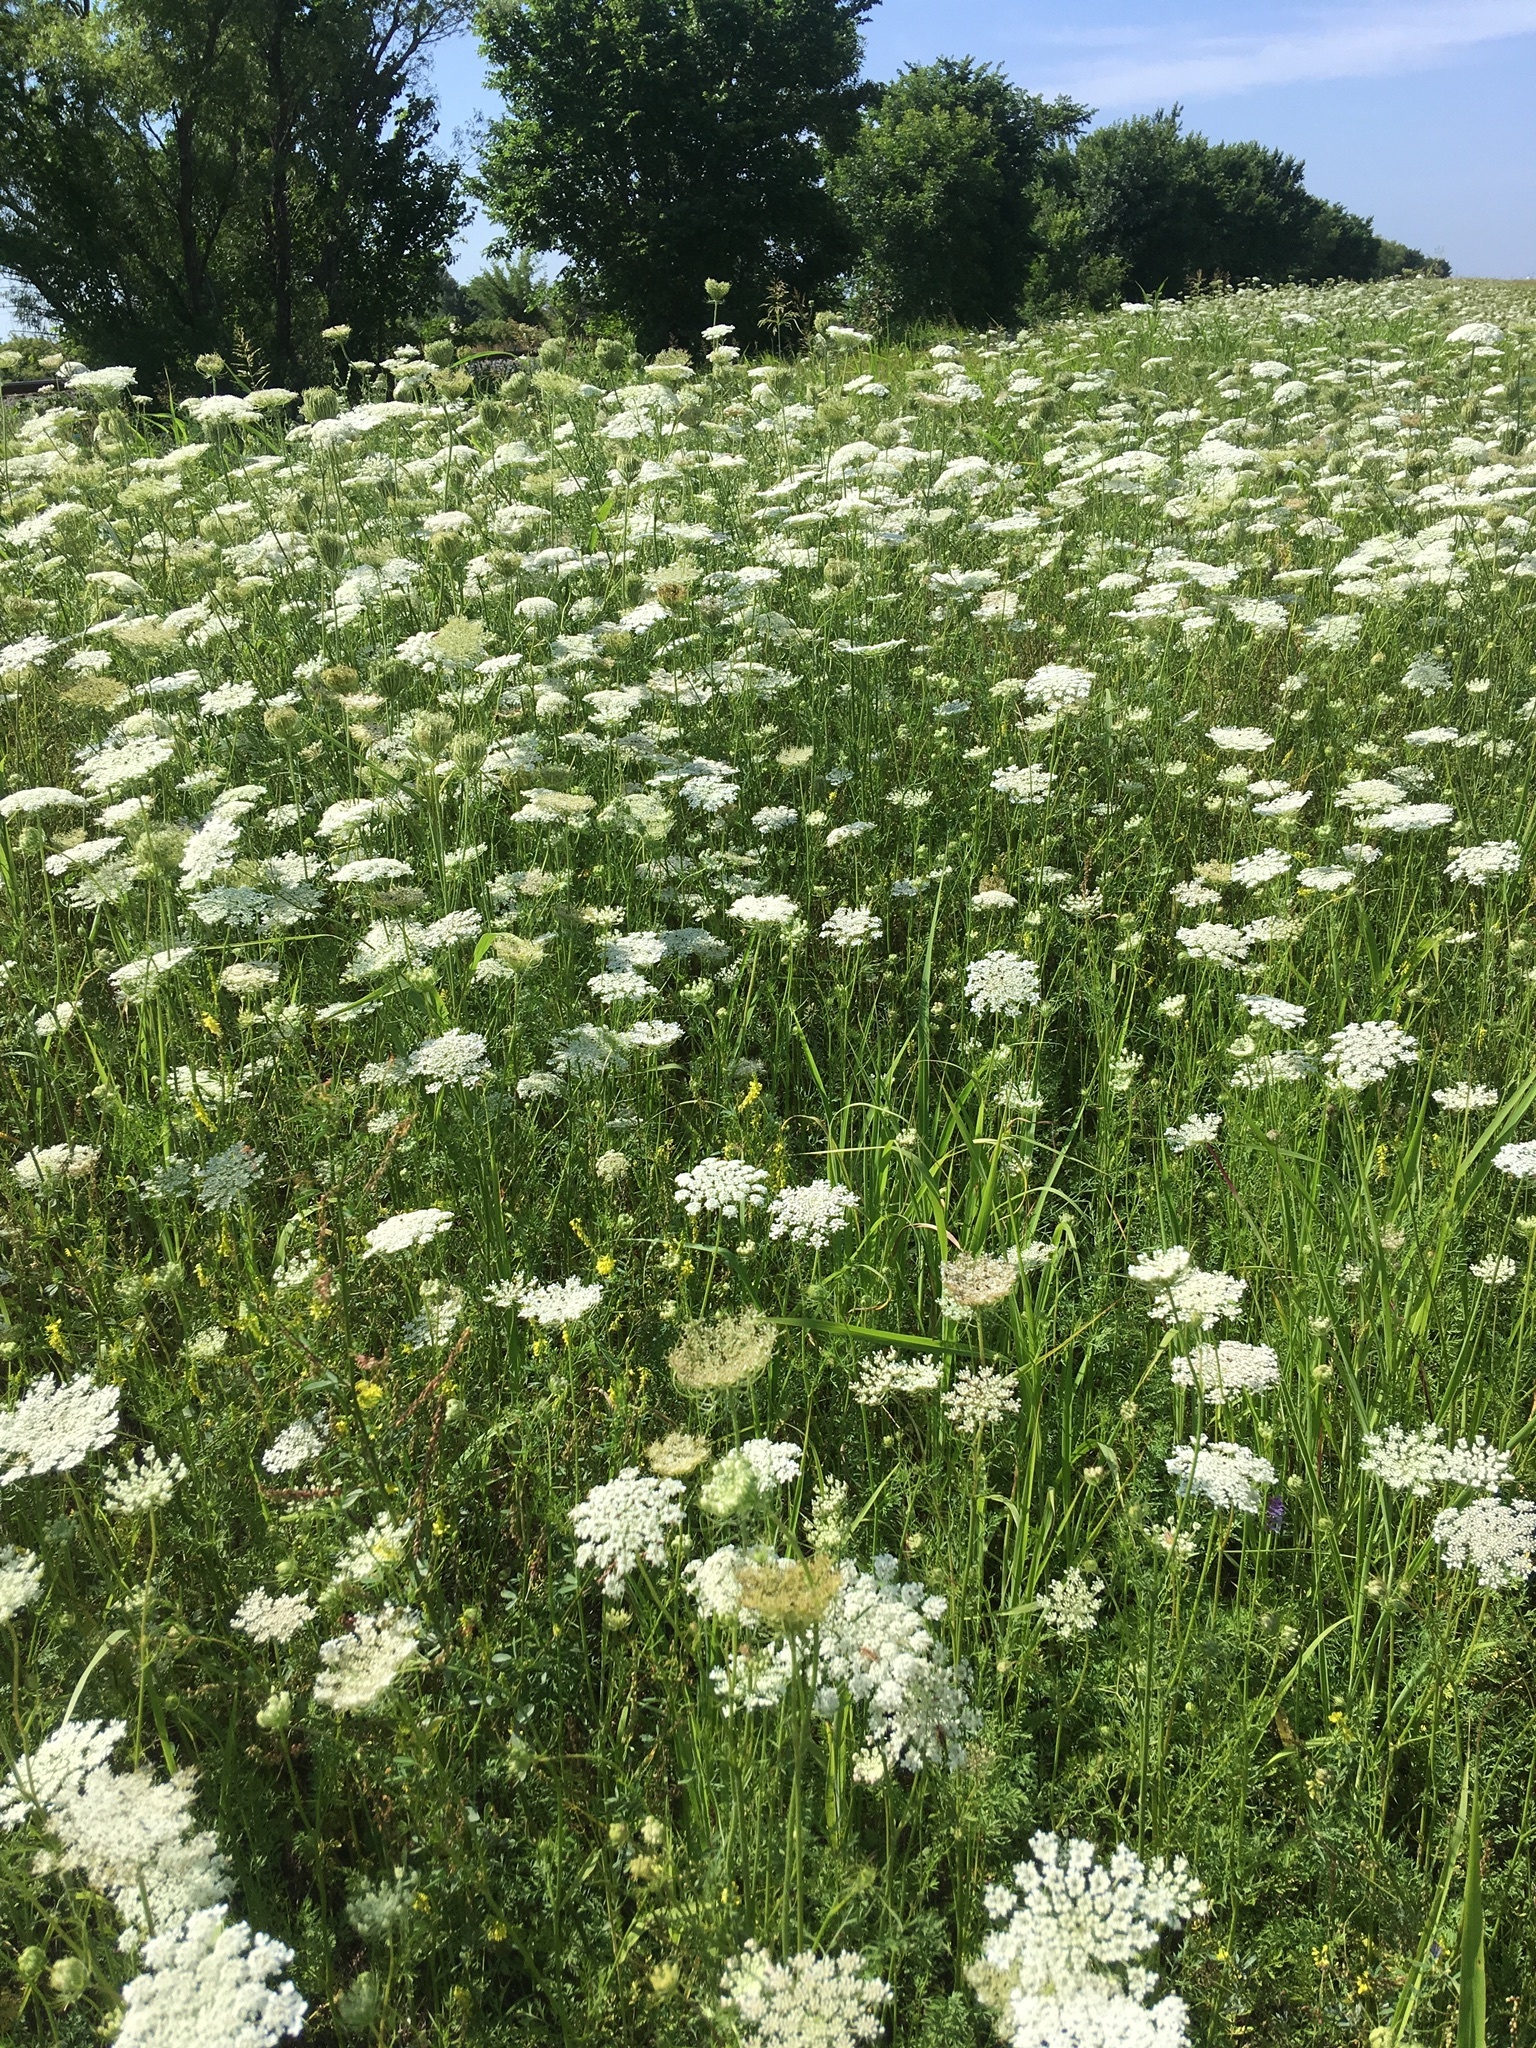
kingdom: Plantae
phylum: Tracheophyta
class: Magnoliopsida
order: Apiales
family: Apiaceae
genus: Daucus
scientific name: Daucus carota
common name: Wild carrot
